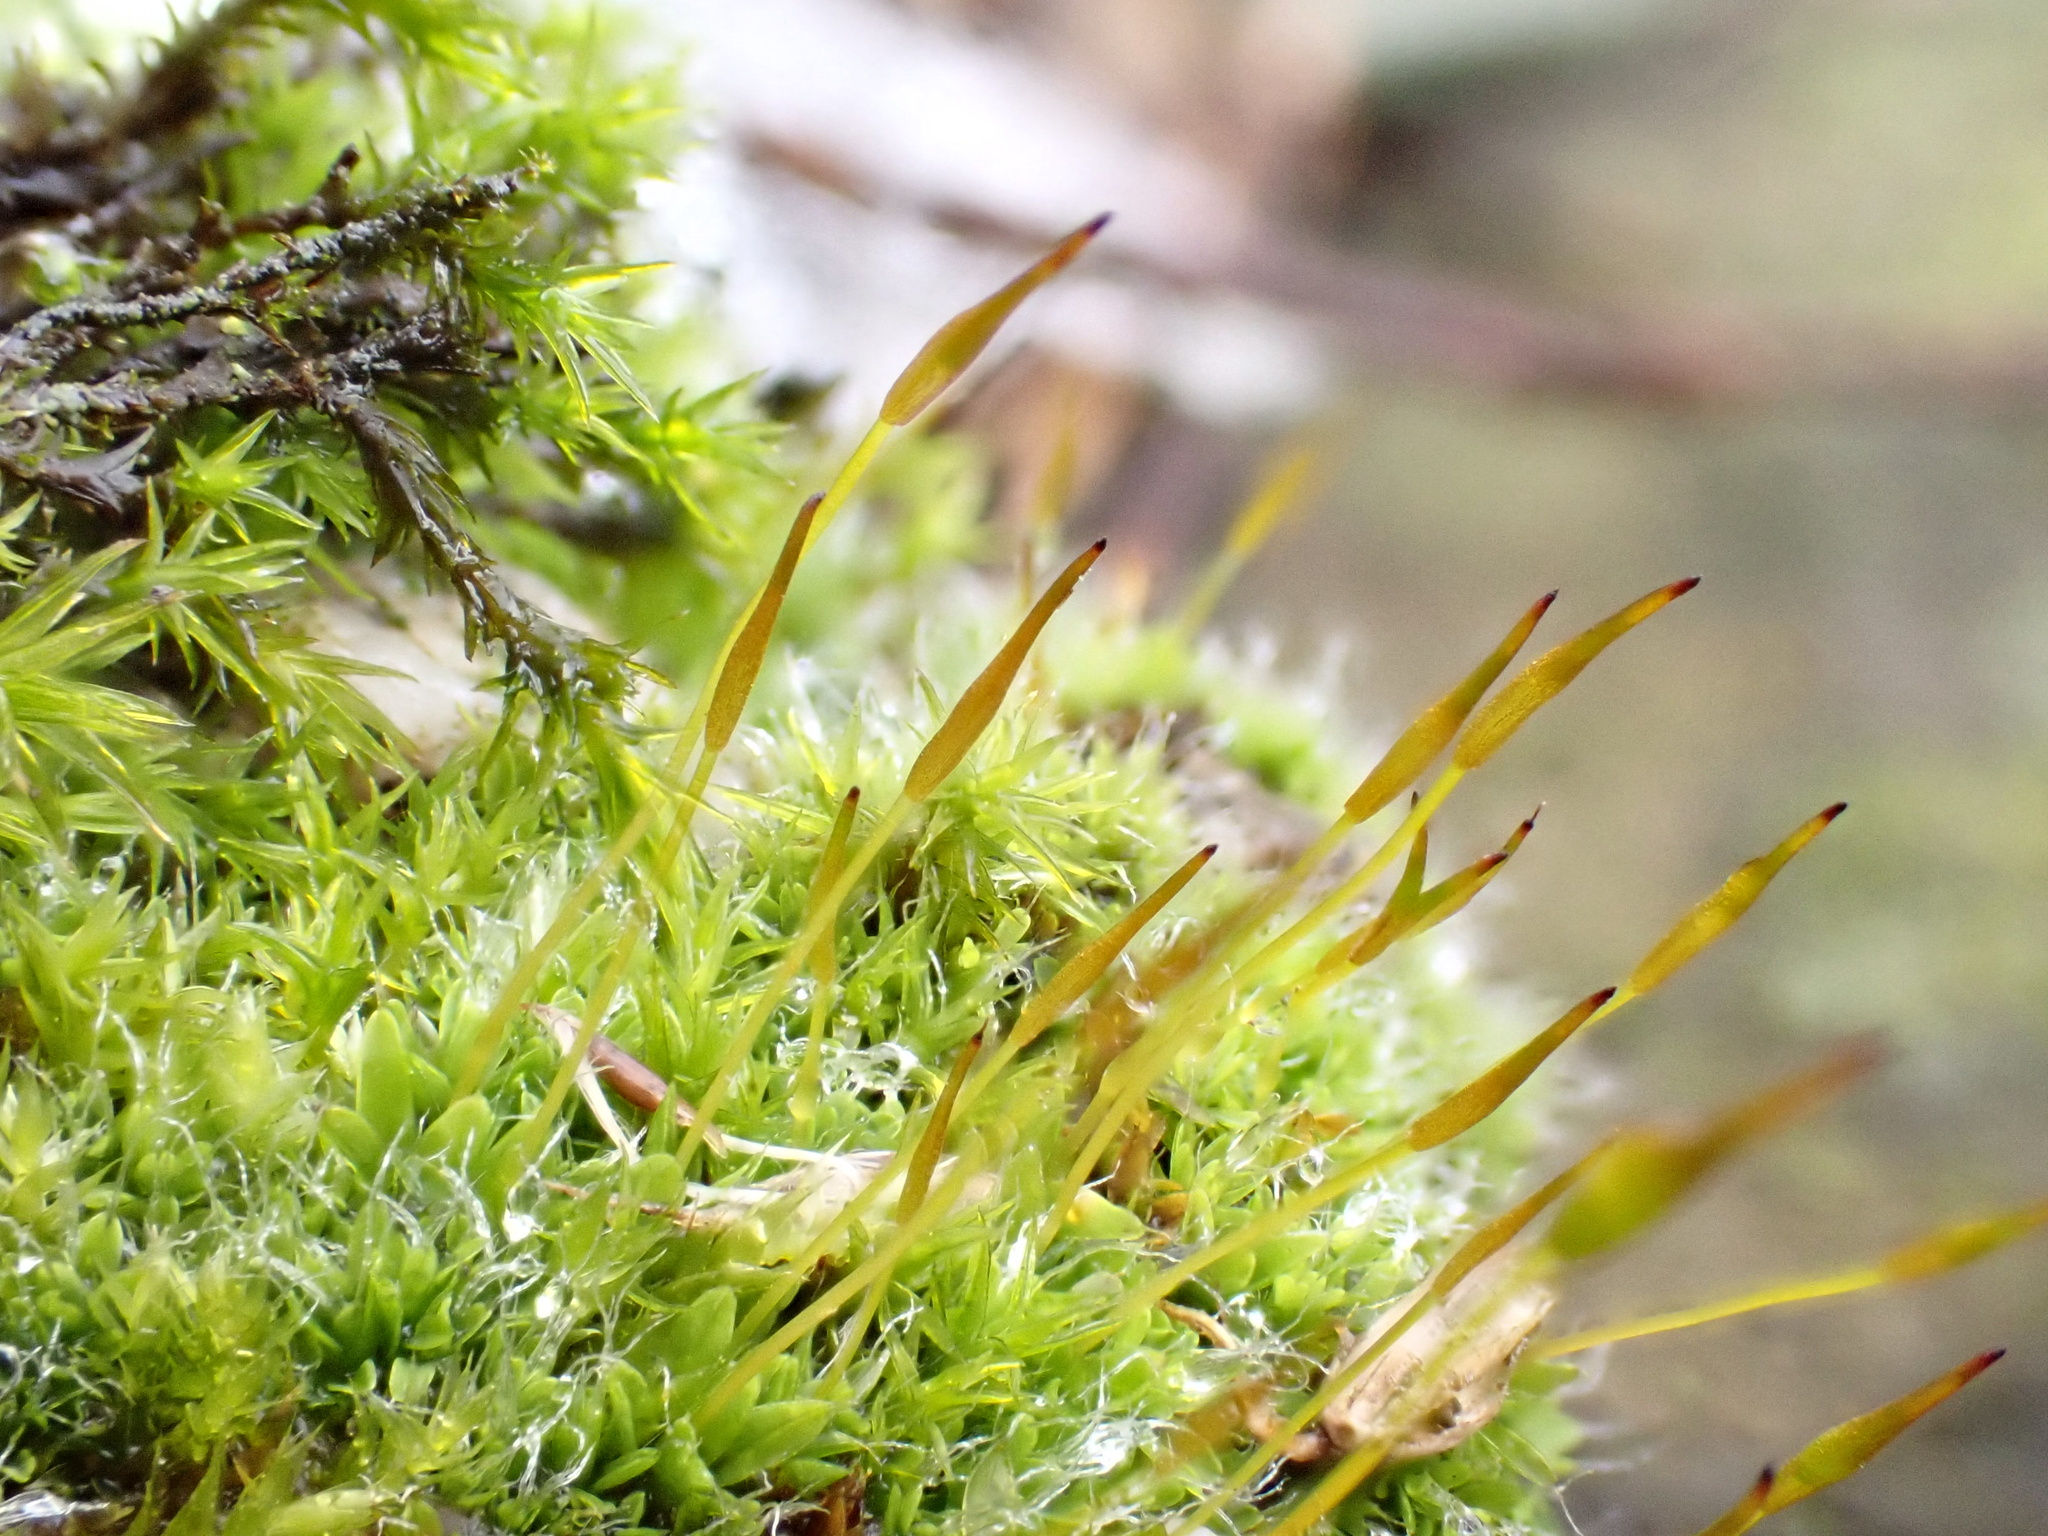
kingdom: Plantae
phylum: Bryophyta
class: Bryopsida
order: Pottiales
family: Pottiaceae
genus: Tortula
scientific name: Tortula muralis
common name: Wall screw-moss
